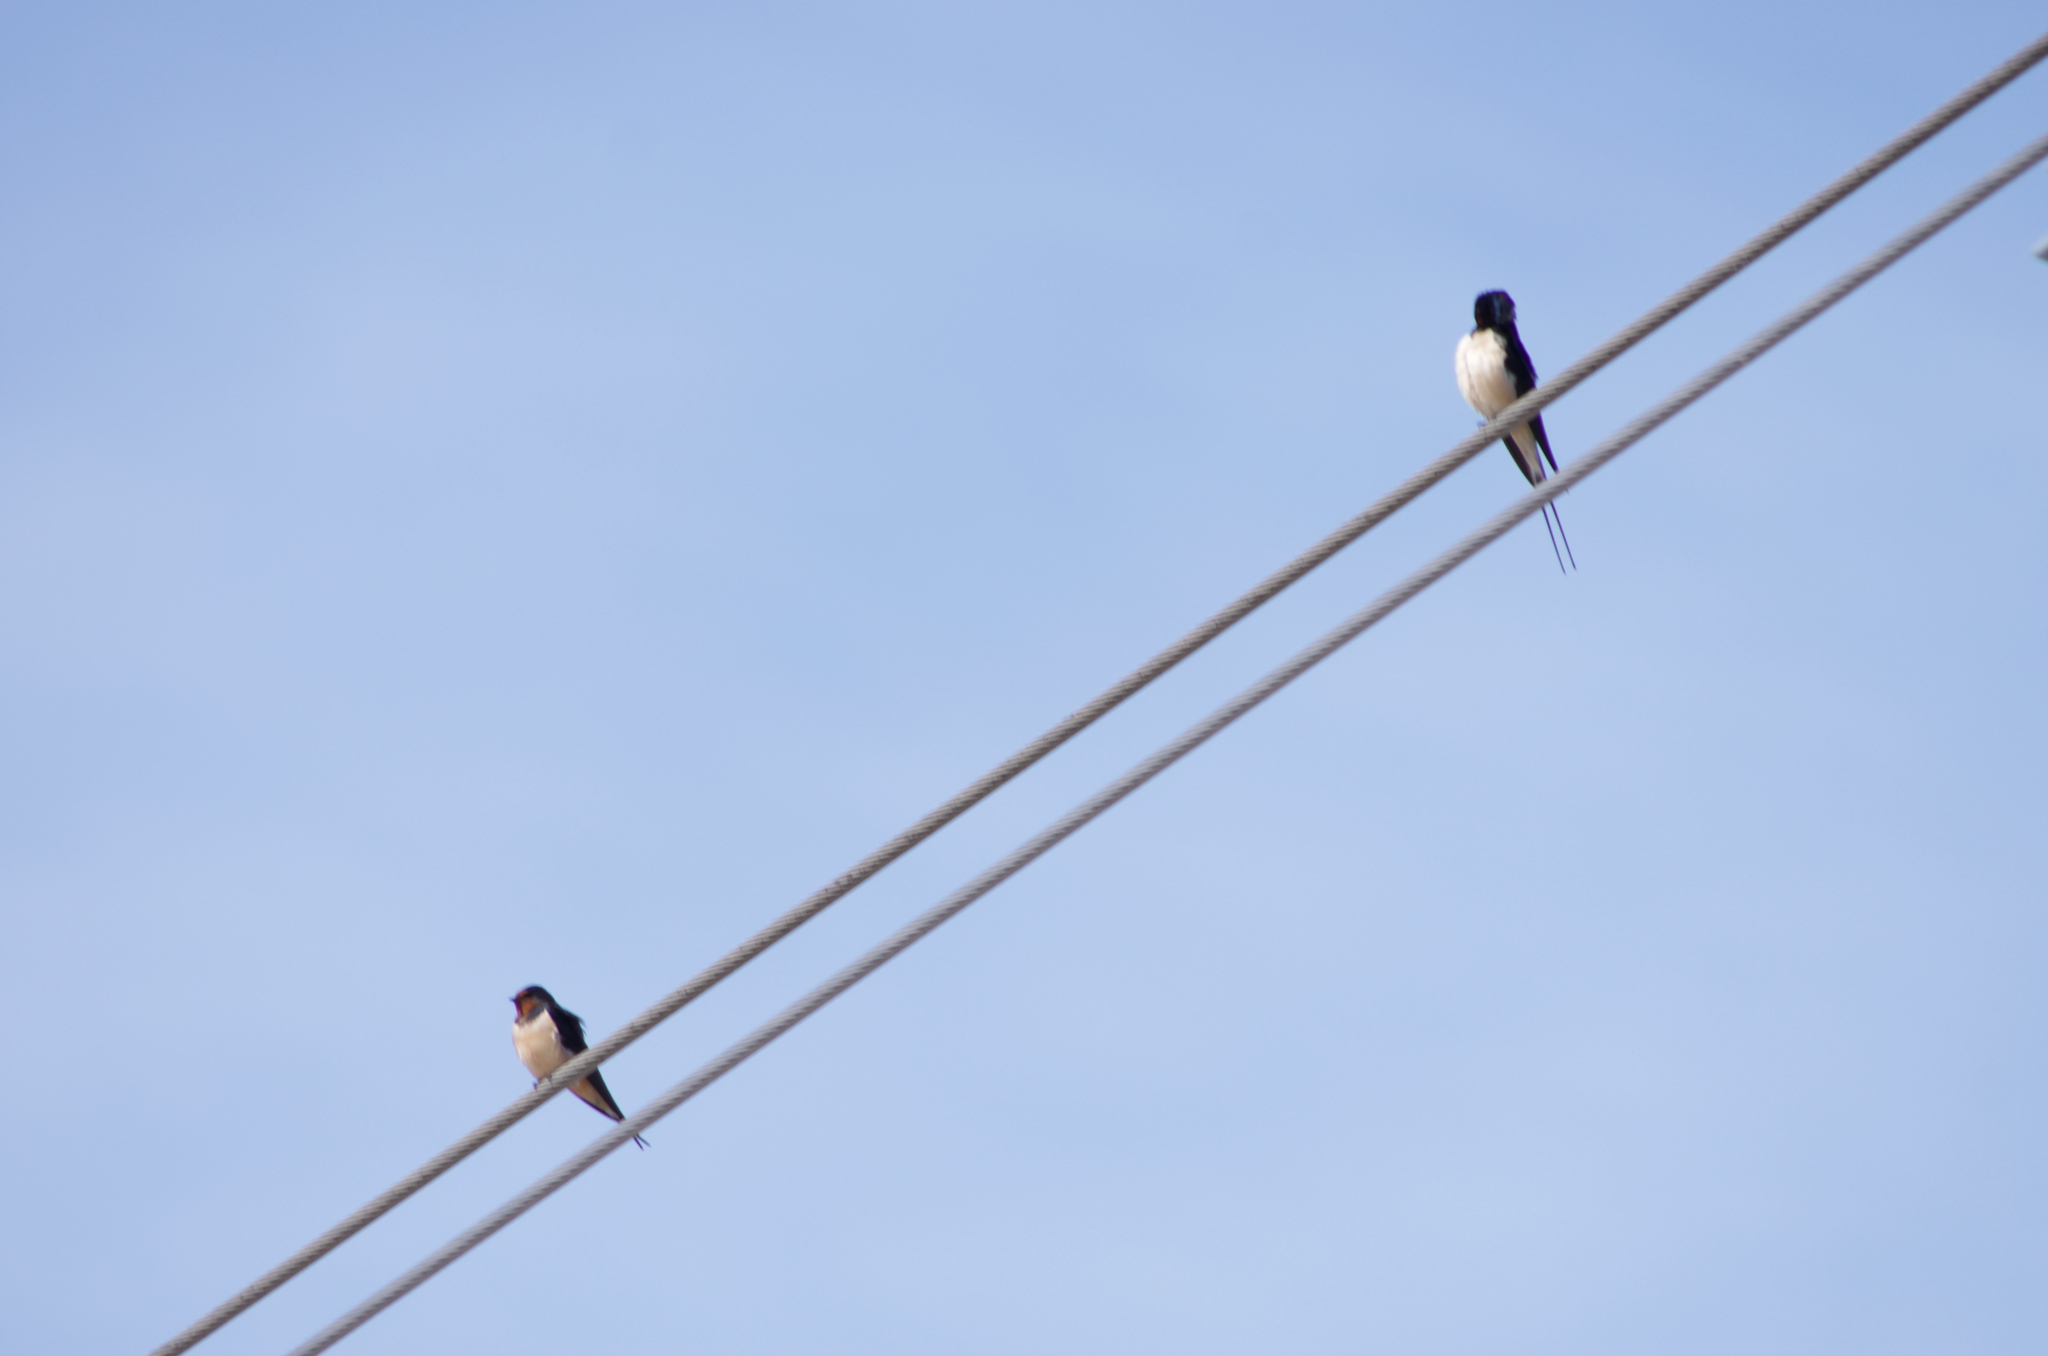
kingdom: Animalia
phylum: Chordata
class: Aves
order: Passeriformes
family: Hirundinidae
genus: Hirundo
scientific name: Hirundo rustica
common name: Barn swallow
